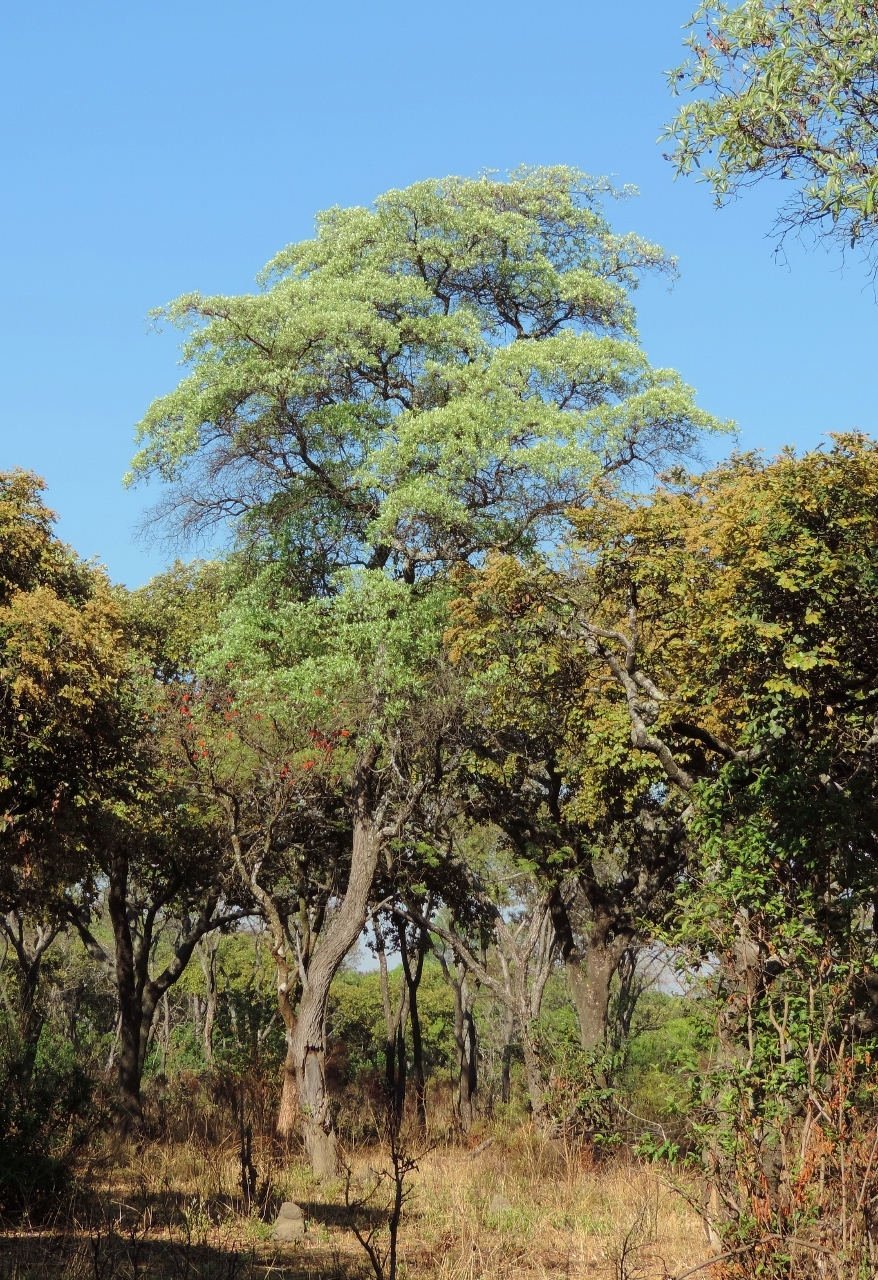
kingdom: Plantae
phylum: Tracheophyta
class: Magnoliopsida
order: Myrtales
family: Combretaceae
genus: Terminalia
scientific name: Terminalia sericea
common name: Clusterleaf
